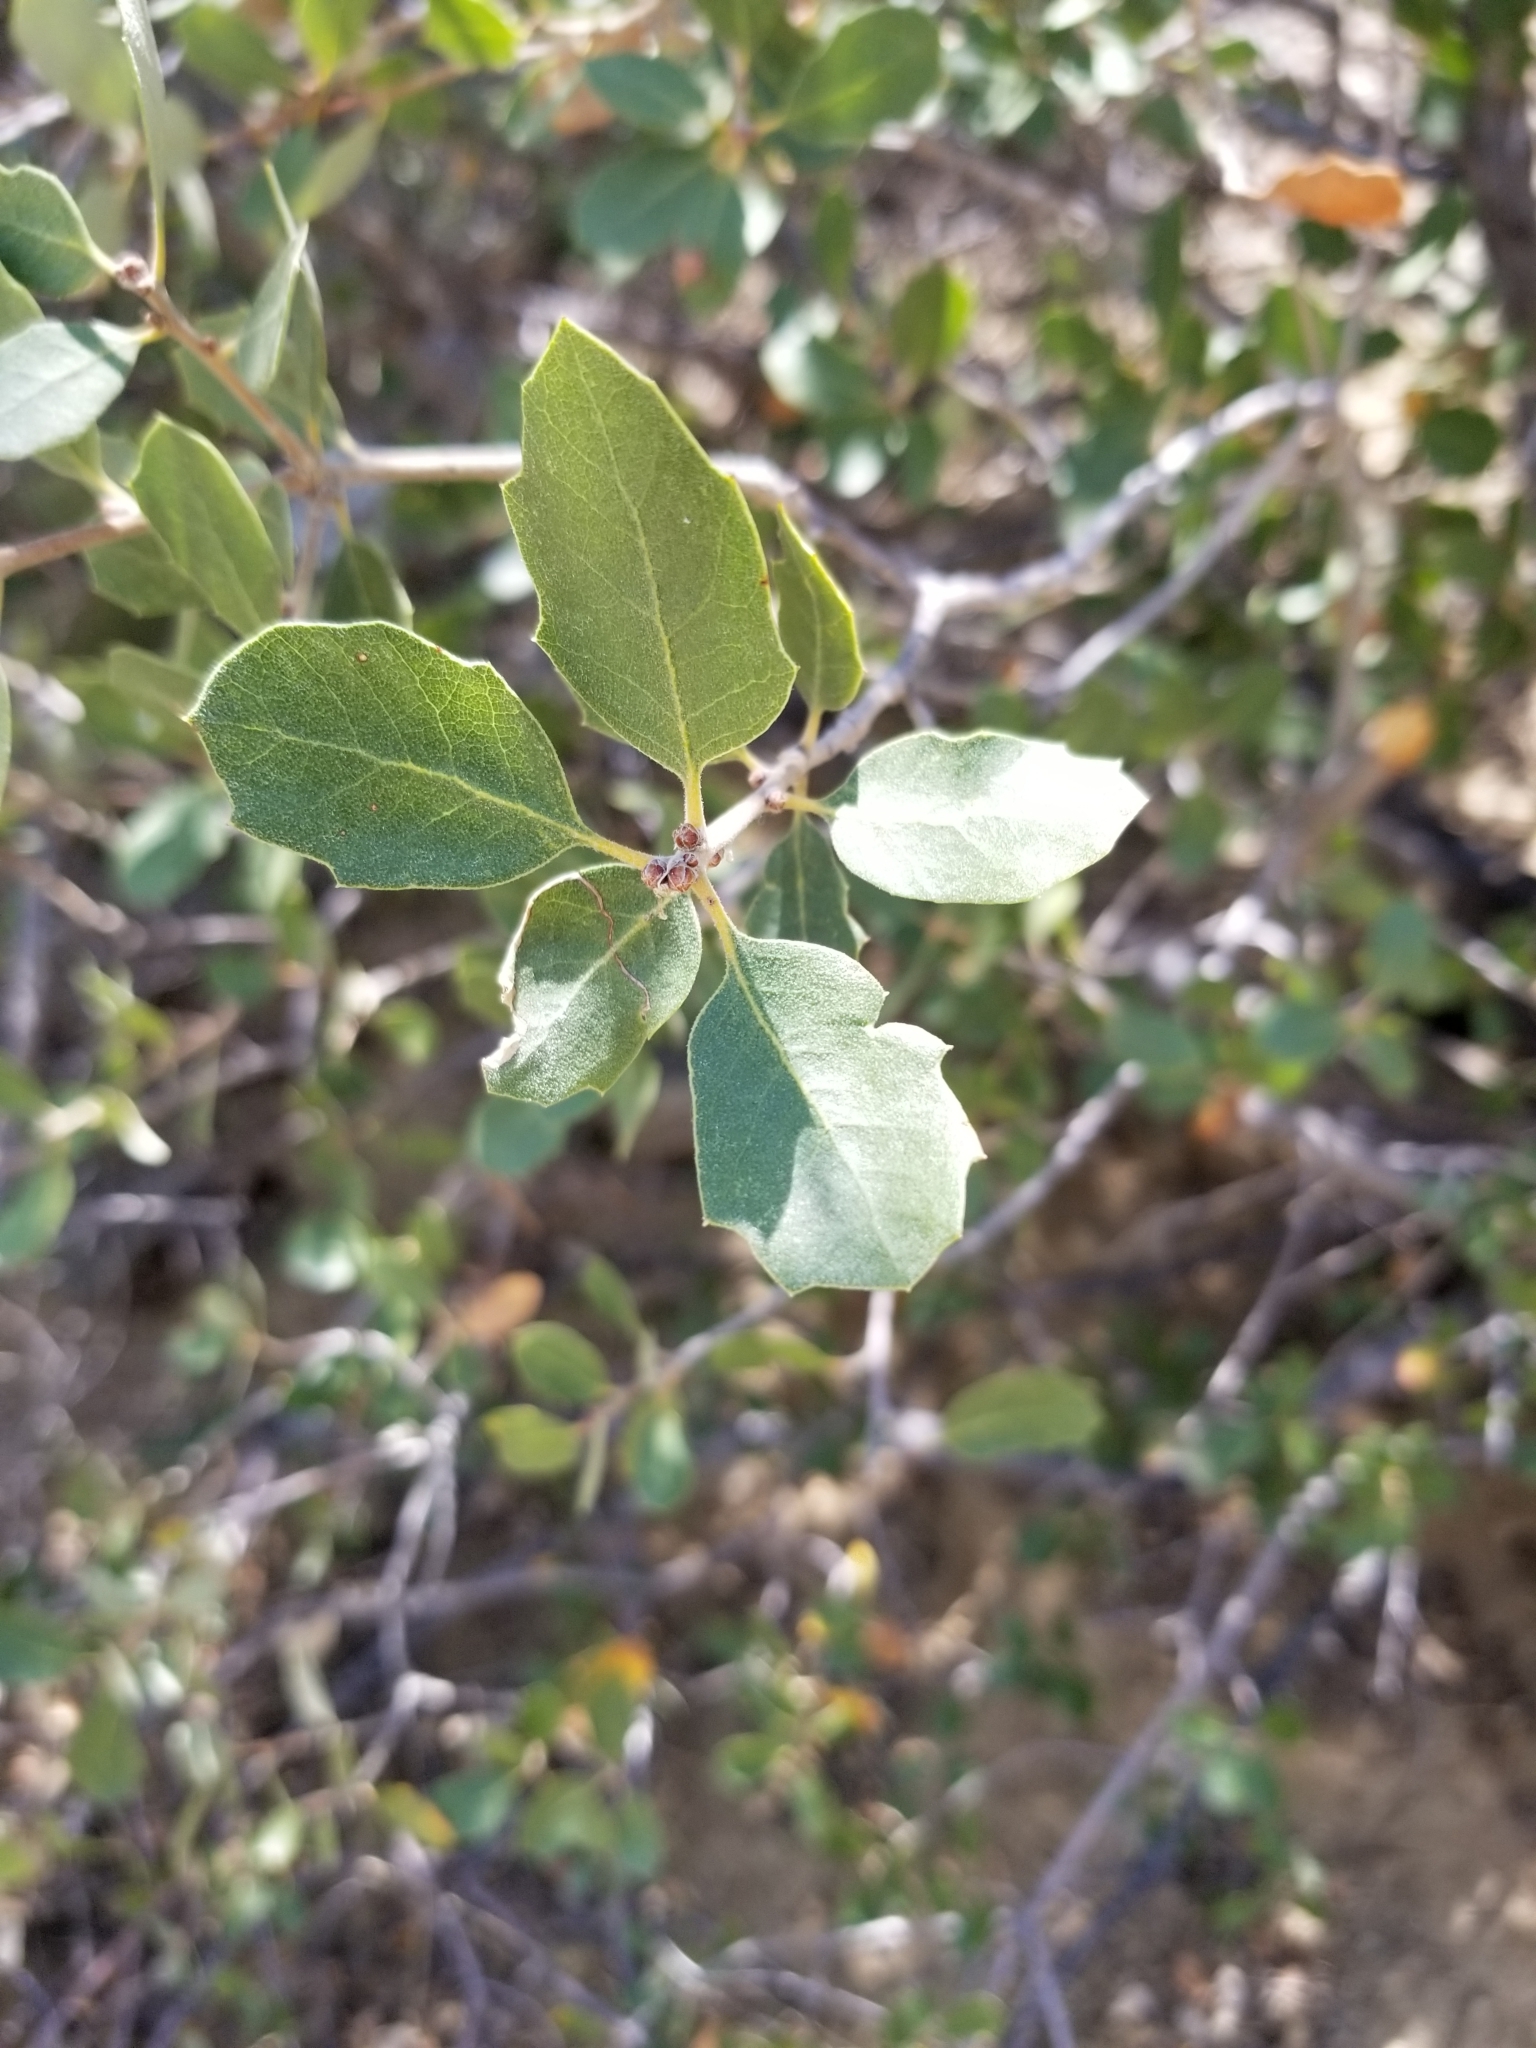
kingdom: Plantae
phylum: Tracheophyta
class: Magnoliopsida
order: Fagales
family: Fagaceae
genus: Quercus
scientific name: Quercus cornelius-mulleri
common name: Muller oak
